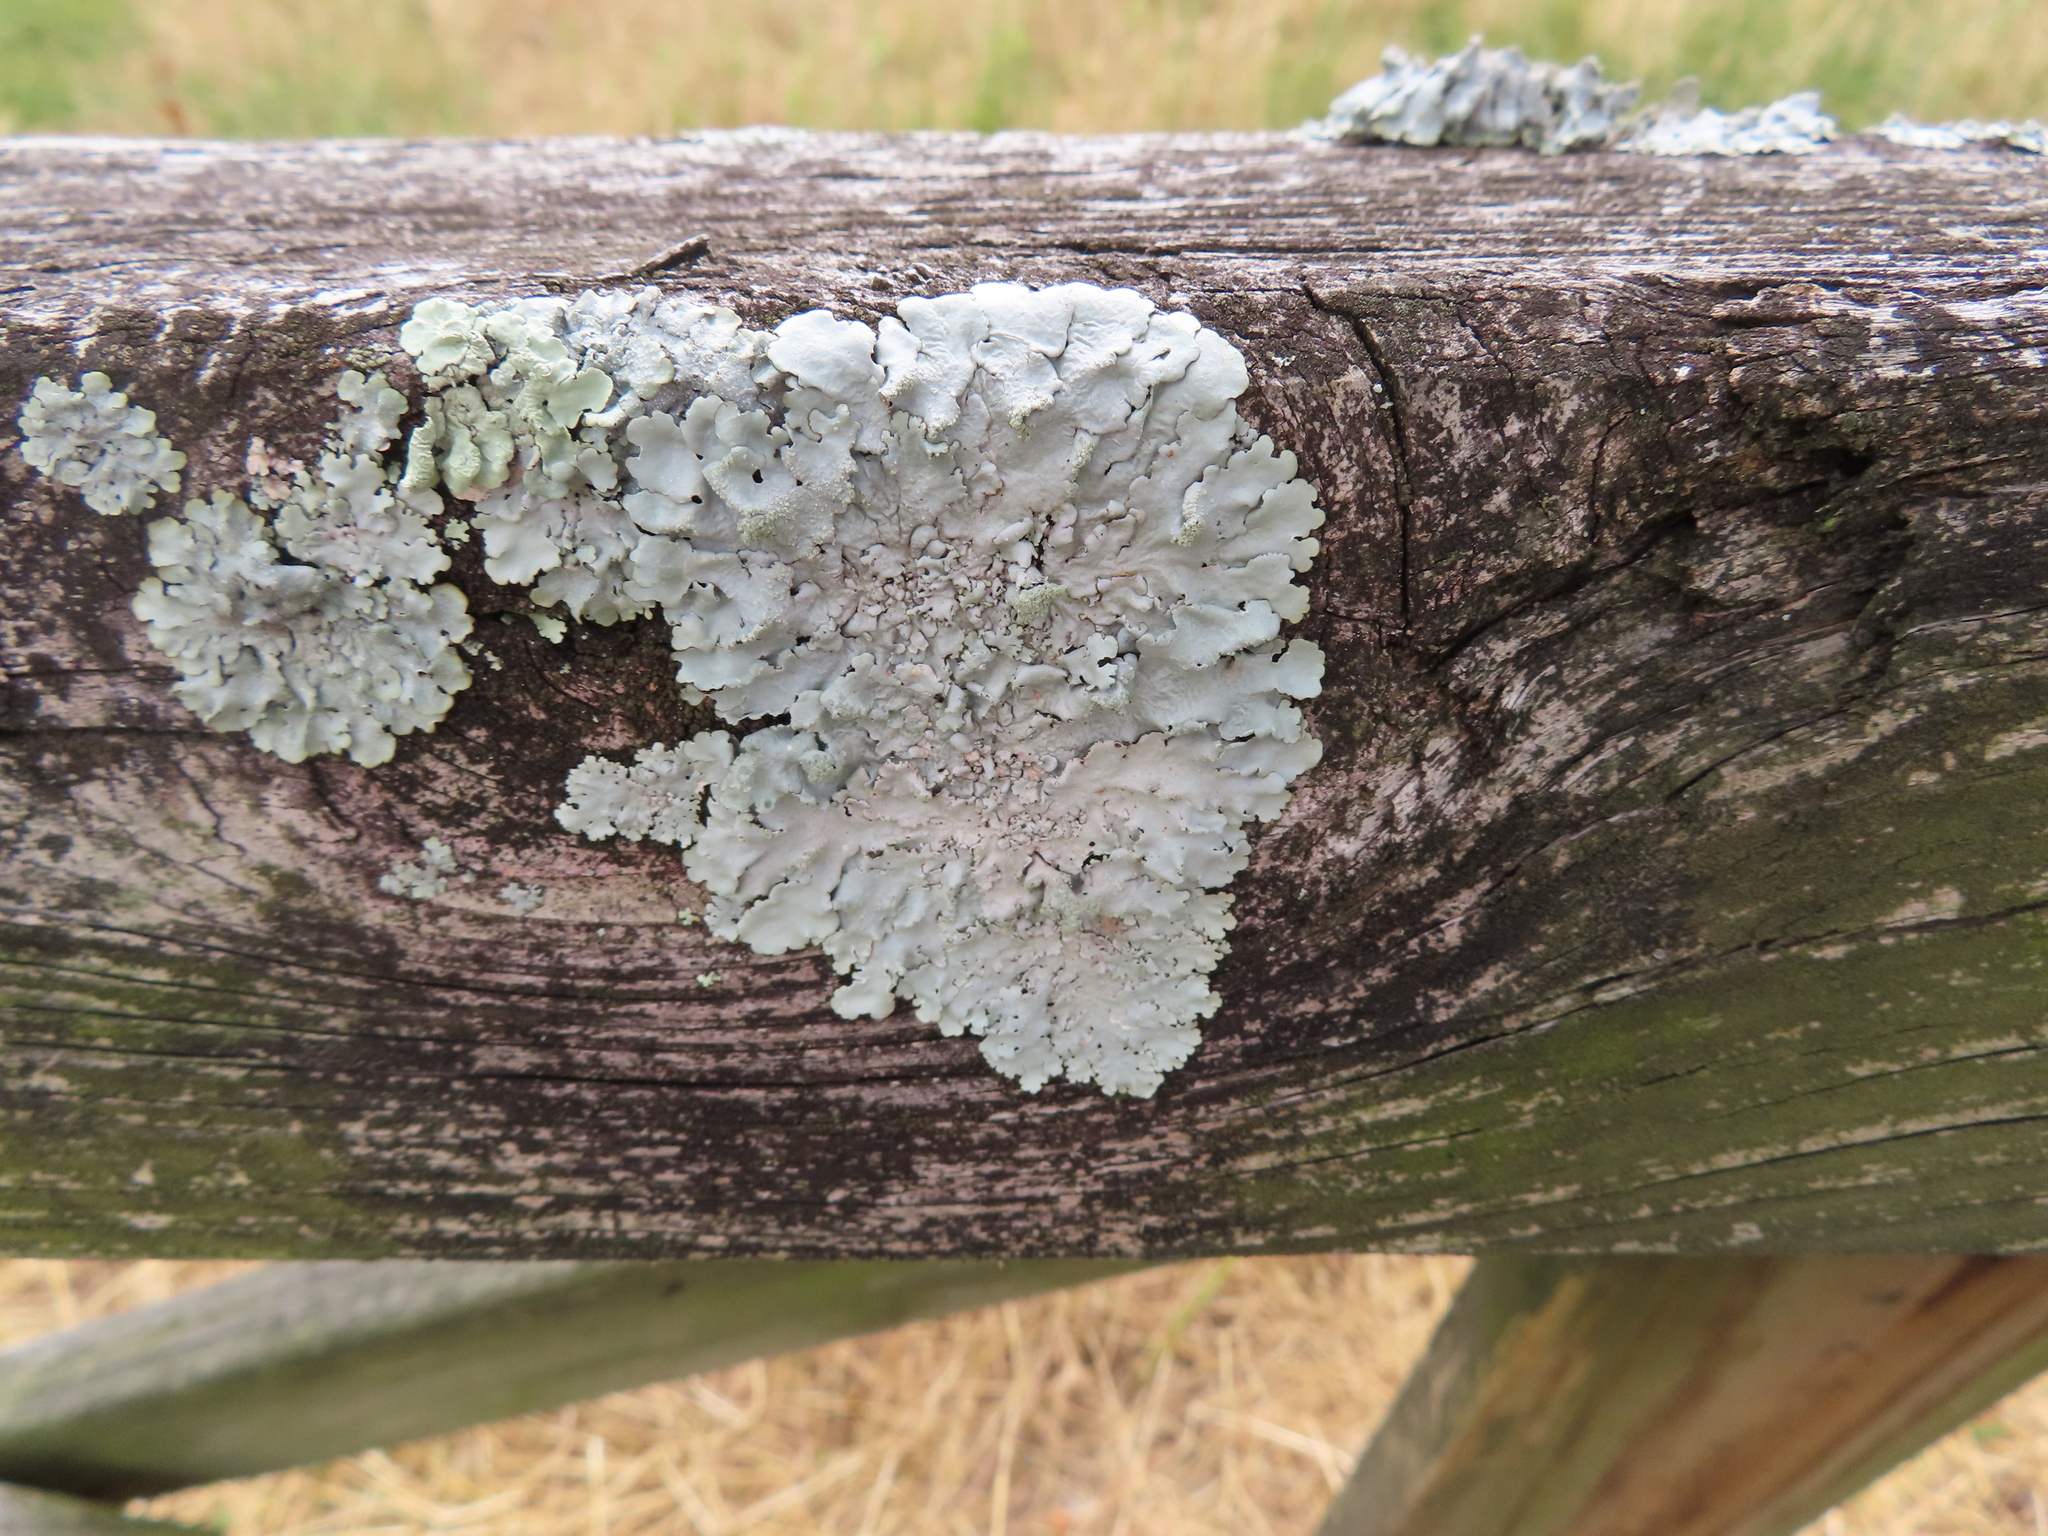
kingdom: Fungi
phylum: Ascomycota
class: Lecanoromycetes
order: Lecanorales
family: Parmeliaceae
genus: Flavoparmelia
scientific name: Flavoparmelia caperata
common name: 40-mile per hour lichen
